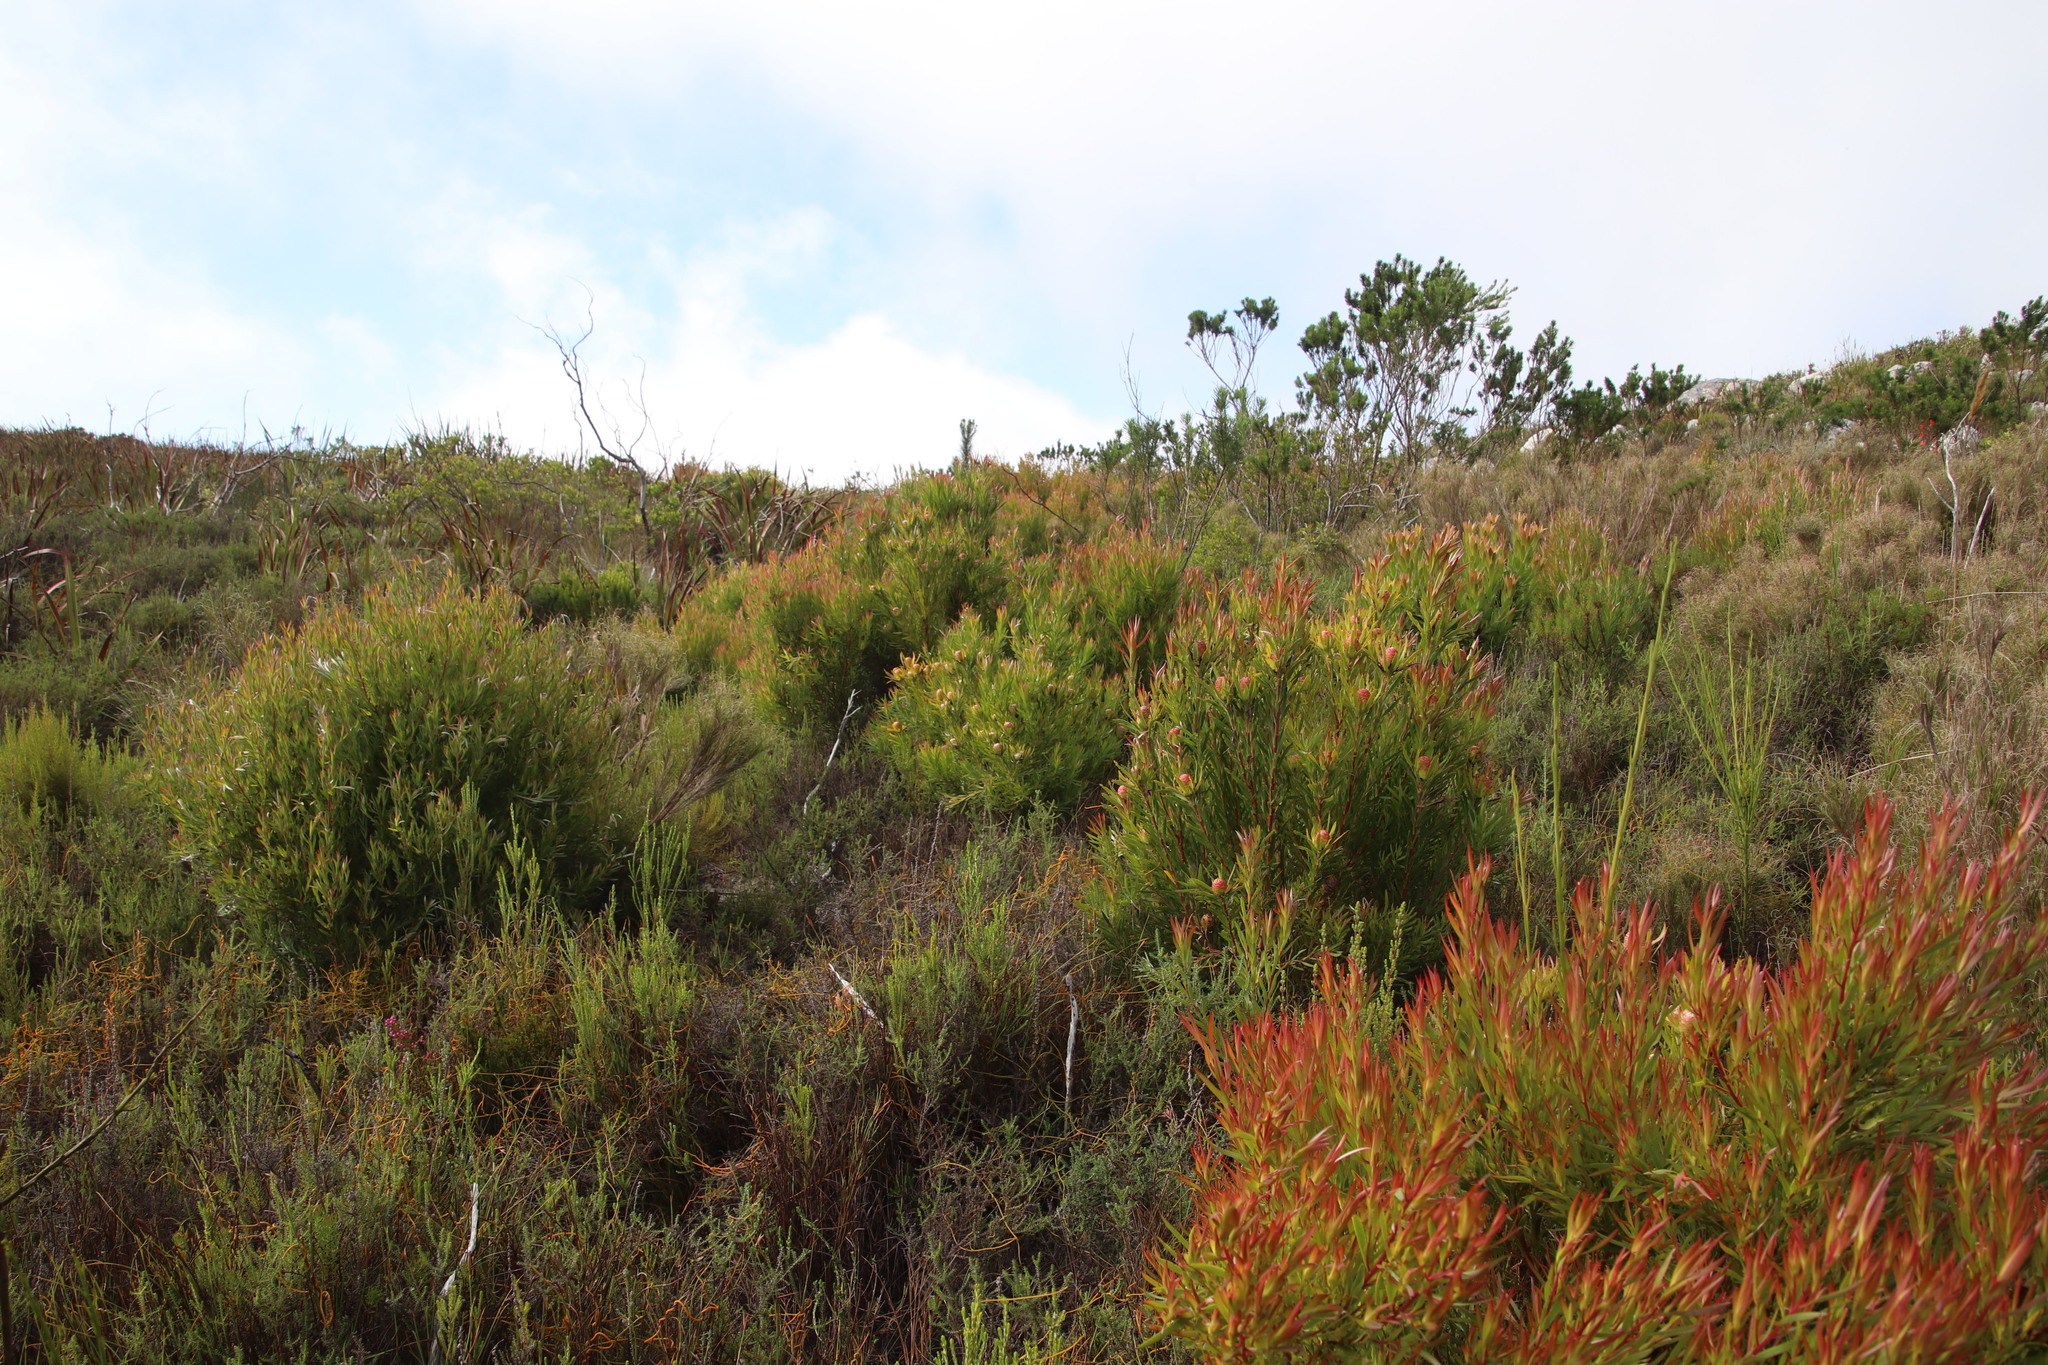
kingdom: Plantae
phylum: Tracheophyta
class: Magnoliopsida
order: Proteales
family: Proteaceae
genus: Leucadendron
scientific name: Leucadendron xanthoconus
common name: Sickle-leaf conebush
